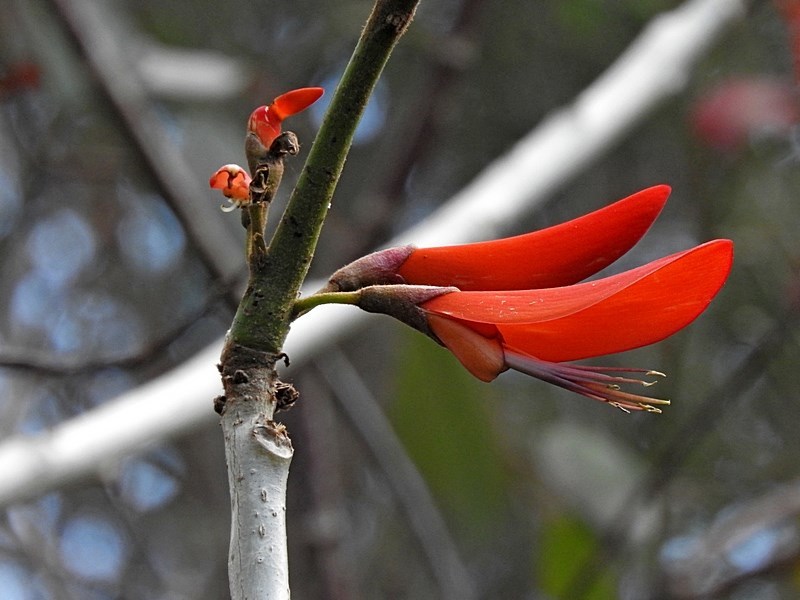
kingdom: Plantae
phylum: Tracheophyta
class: Magnoliopsida
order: Fabales
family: Fabaceae
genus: Erythrina
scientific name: Erythrina sykesii
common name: Coraltree
